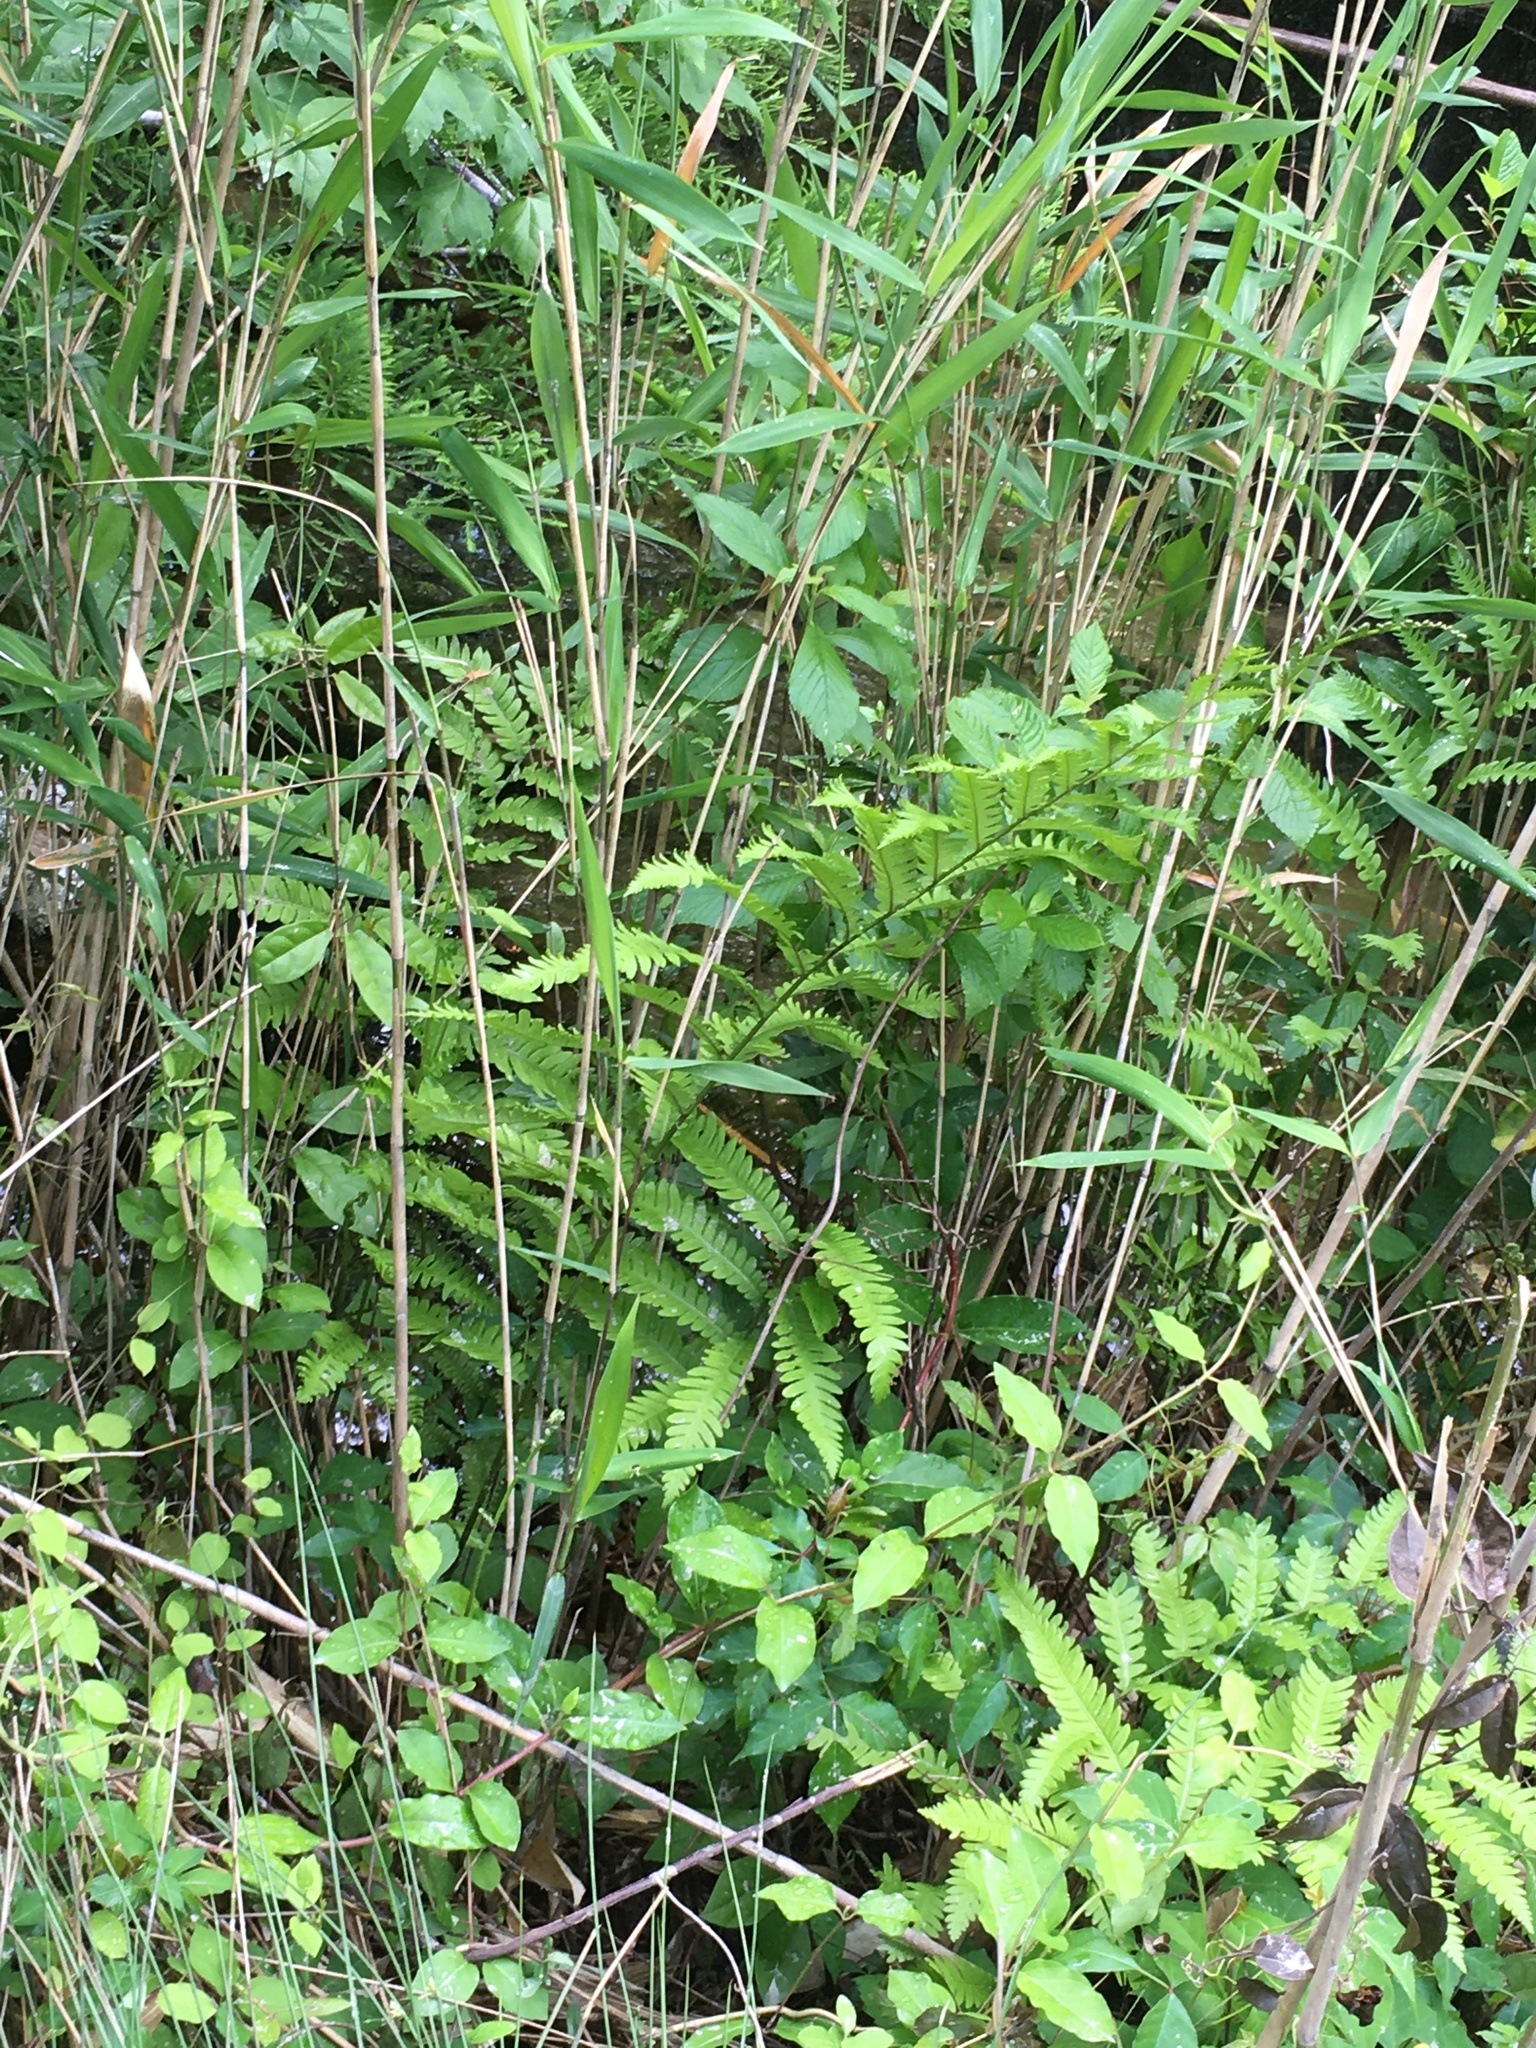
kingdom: Plantae
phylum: Tracheophyta
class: Polypodiopsida
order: Polypodiales
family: Blechnaceae
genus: Anchistea
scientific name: Anchistea virginica
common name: Virginia chain fern
